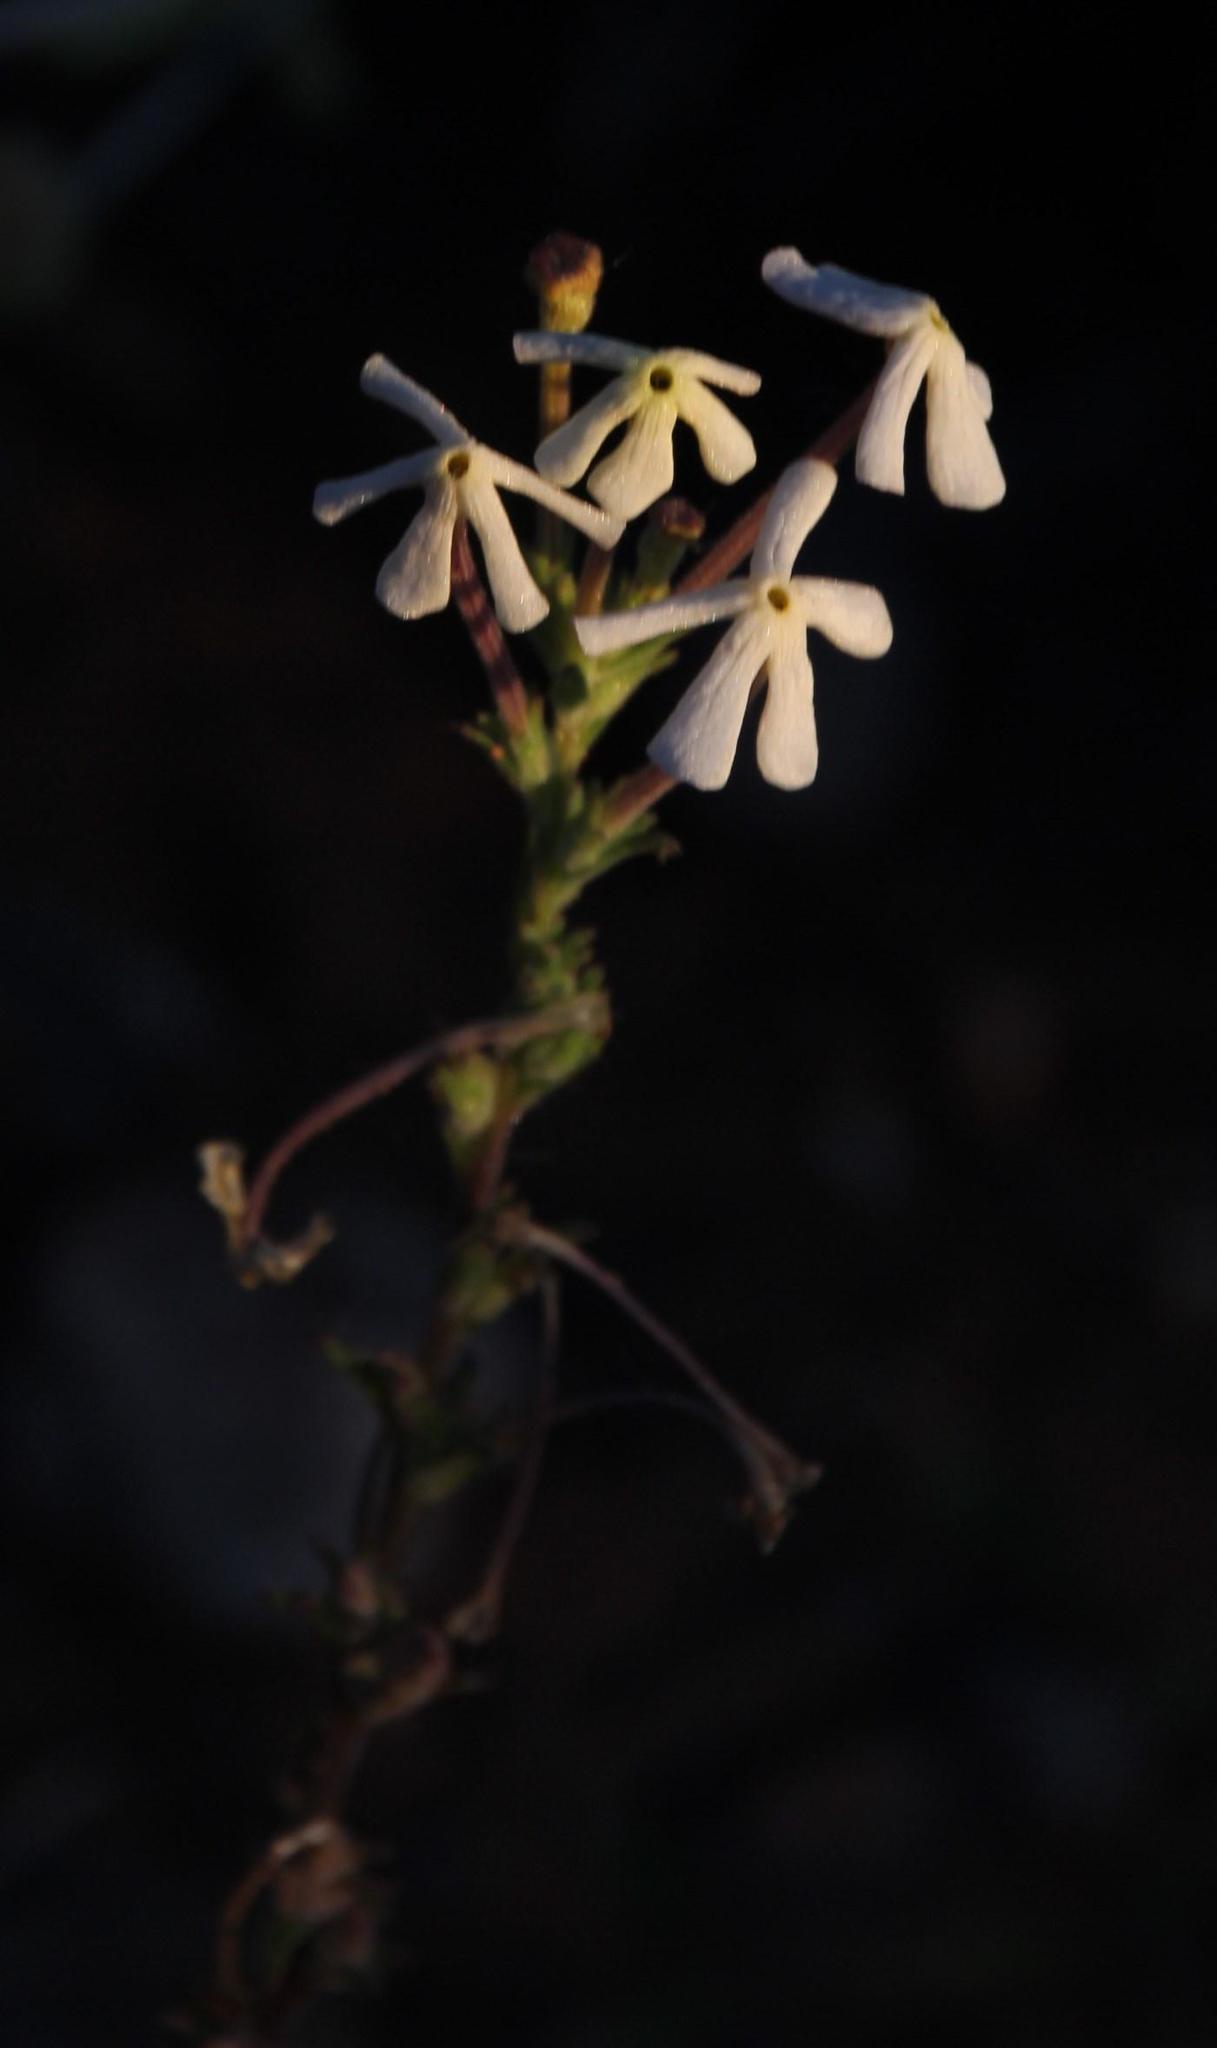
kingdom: Plantae
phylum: Tracheophyta
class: Magnoliopsida
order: Lamiales
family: Scrophulariaceae
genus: Lyperia
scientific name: Lyperia tristis
